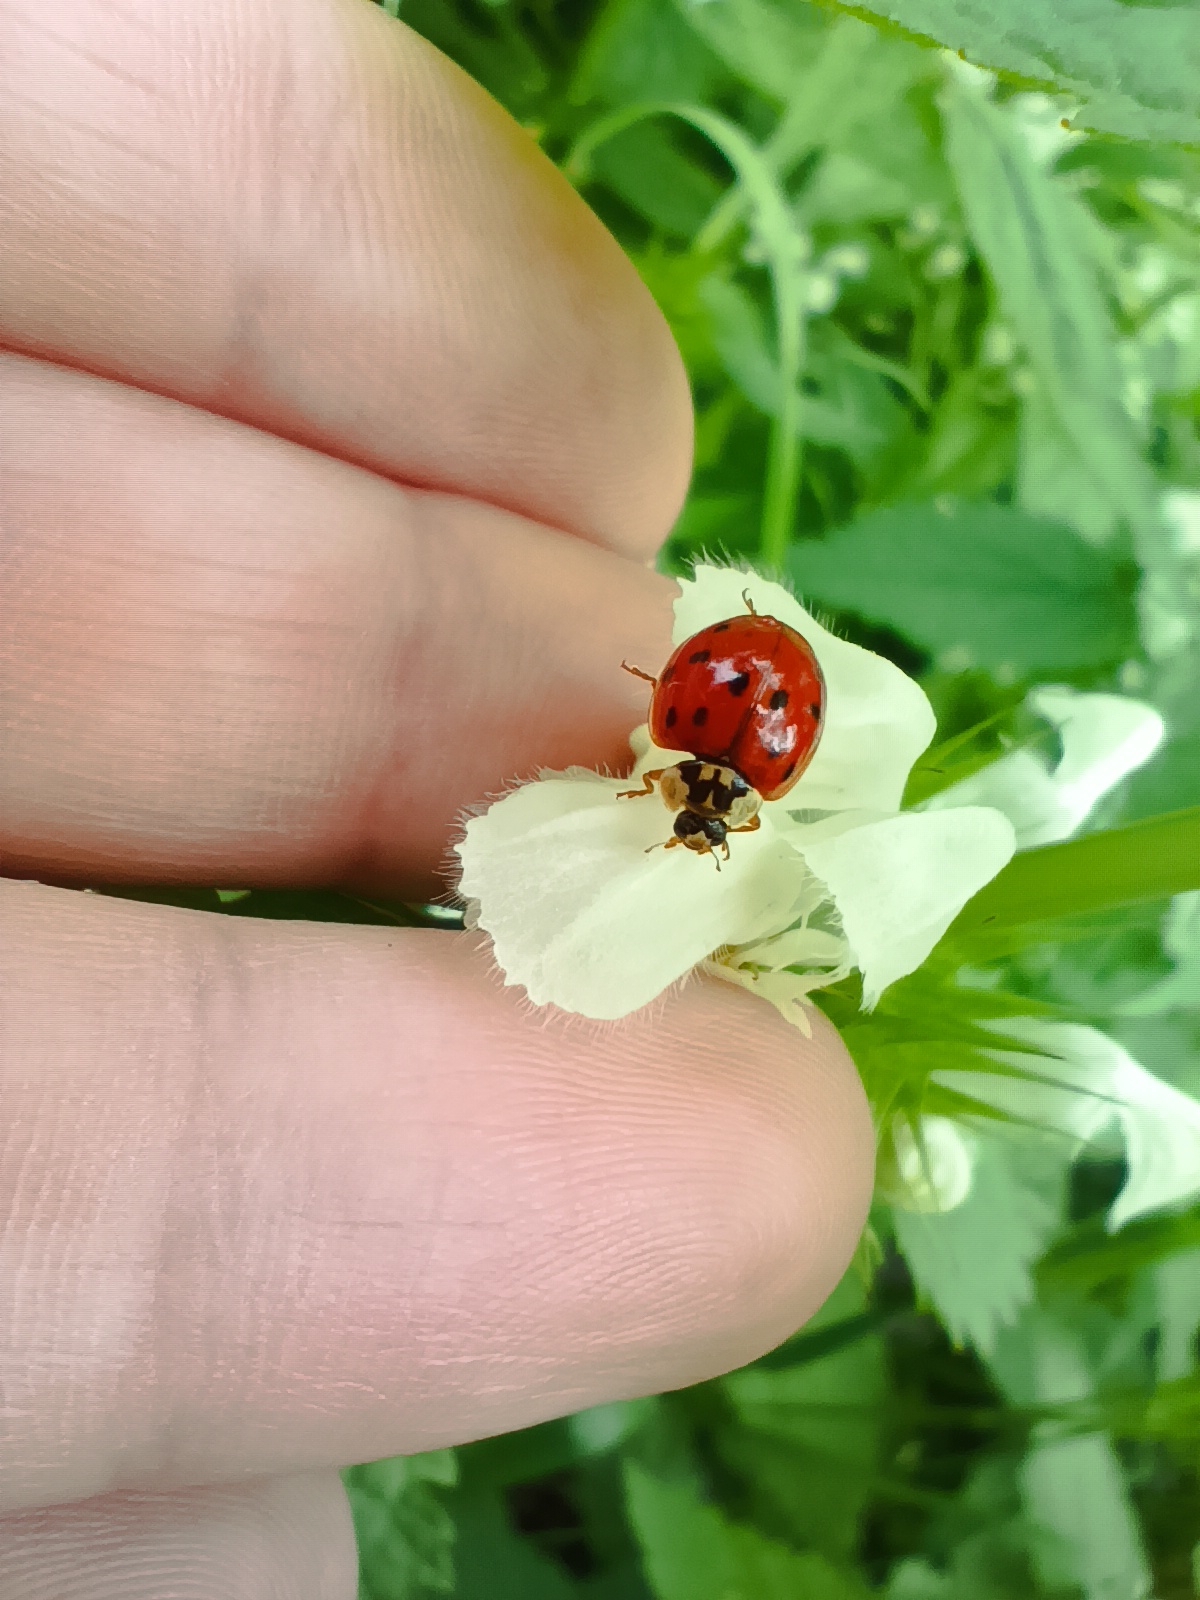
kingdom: Animalia
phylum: Arthropoda
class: Insecta
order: Coleoptera
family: Coccinellidae
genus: Harmonia
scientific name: Harmonia axyridis
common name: Harlequin ladybird
